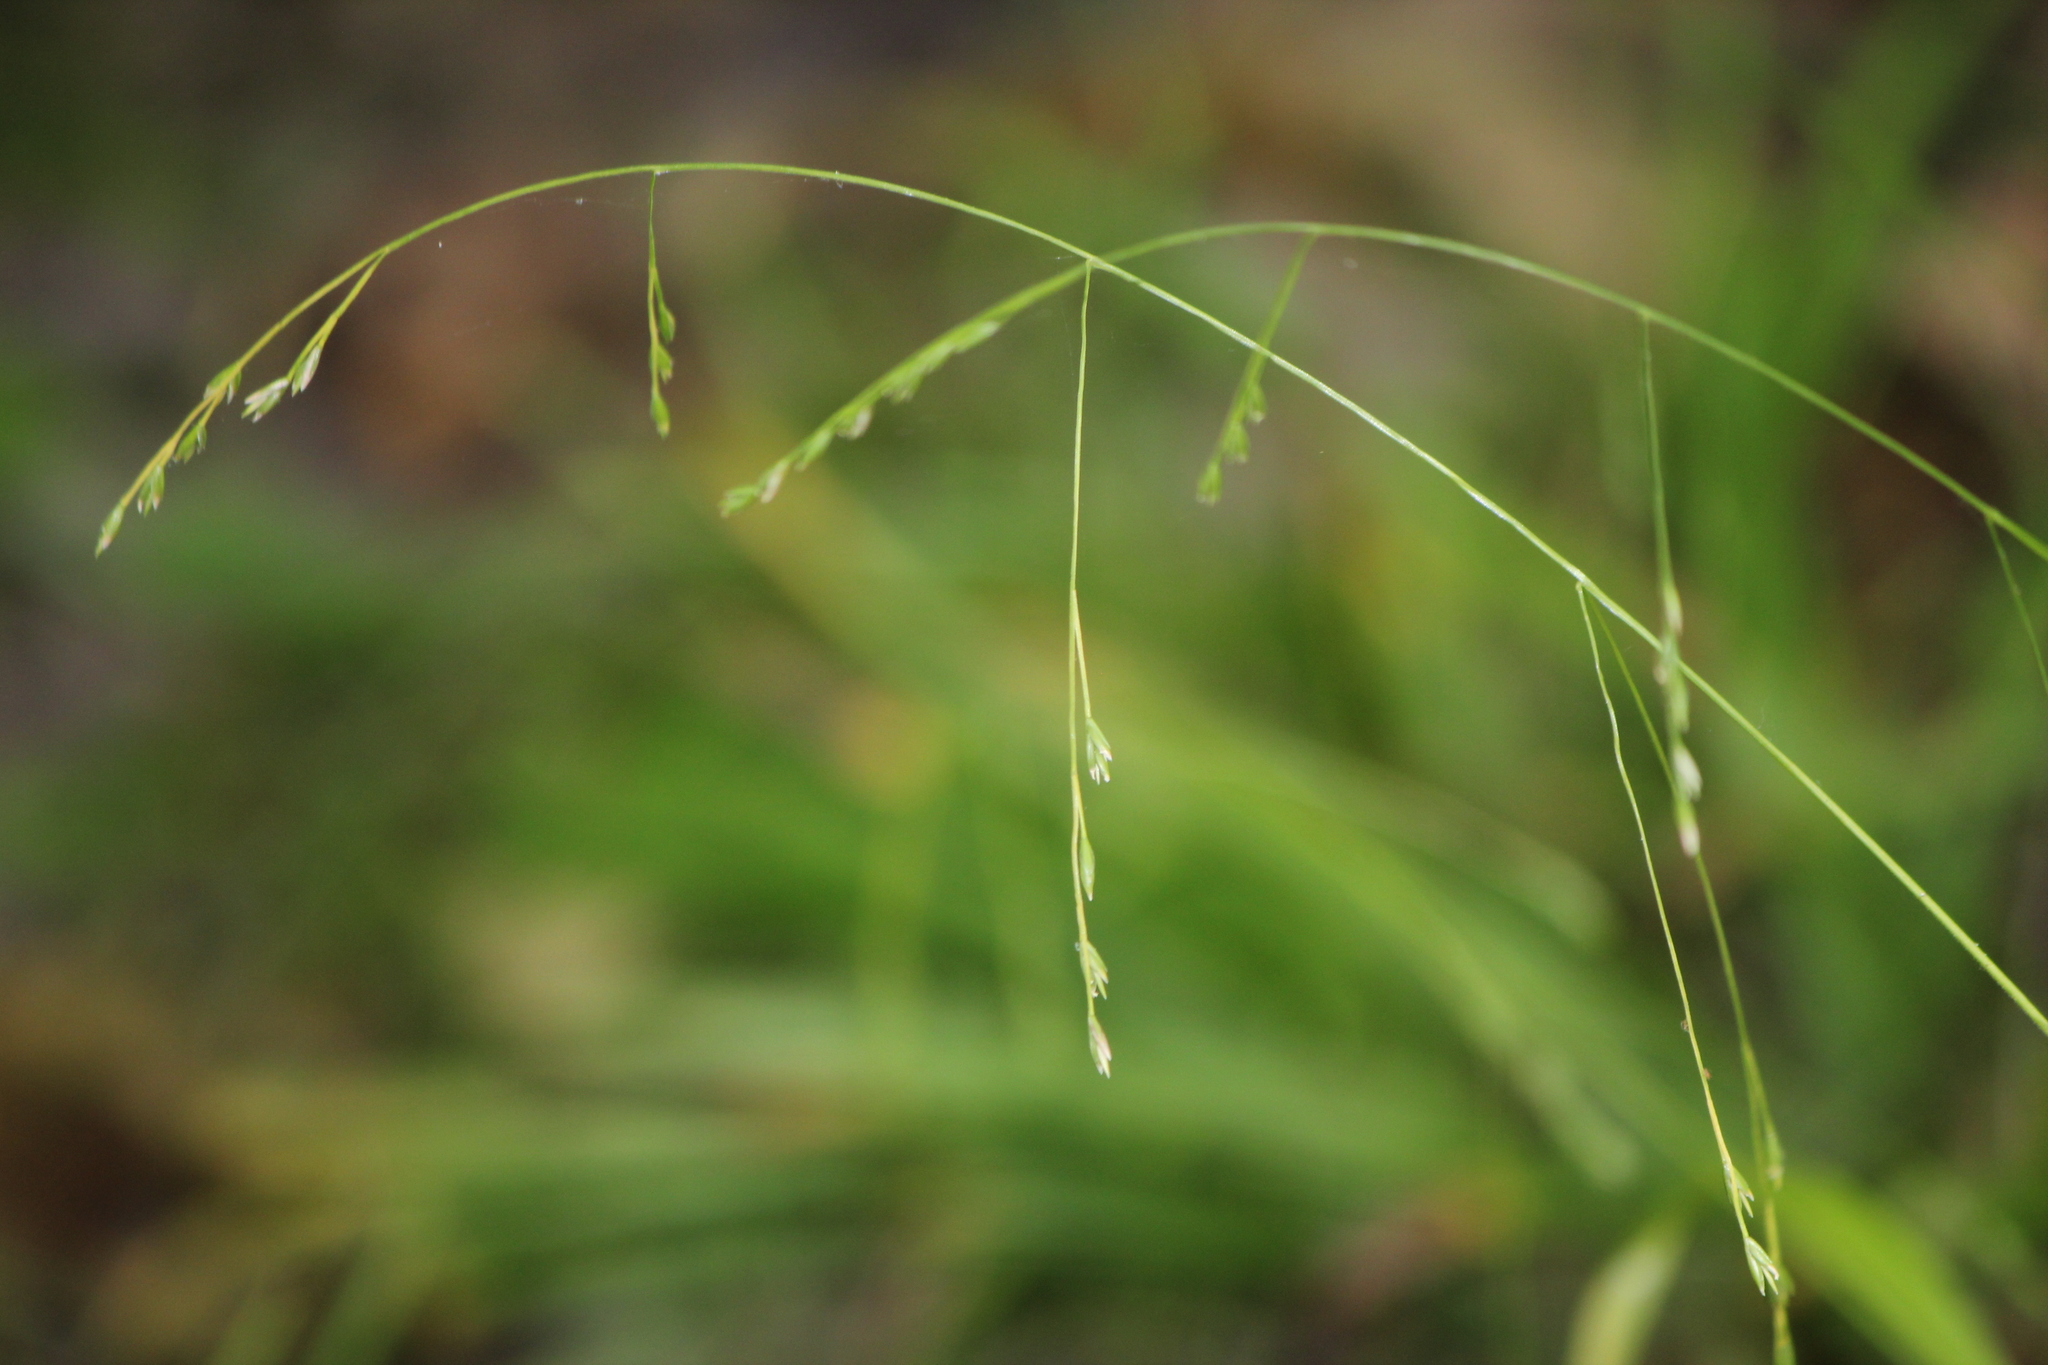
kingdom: Plantae
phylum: Tracheophyta
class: Liliopsida
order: Poales
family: Poaceae
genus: Festuca
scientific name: Festuca subverticillata
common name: Nodding fescue
